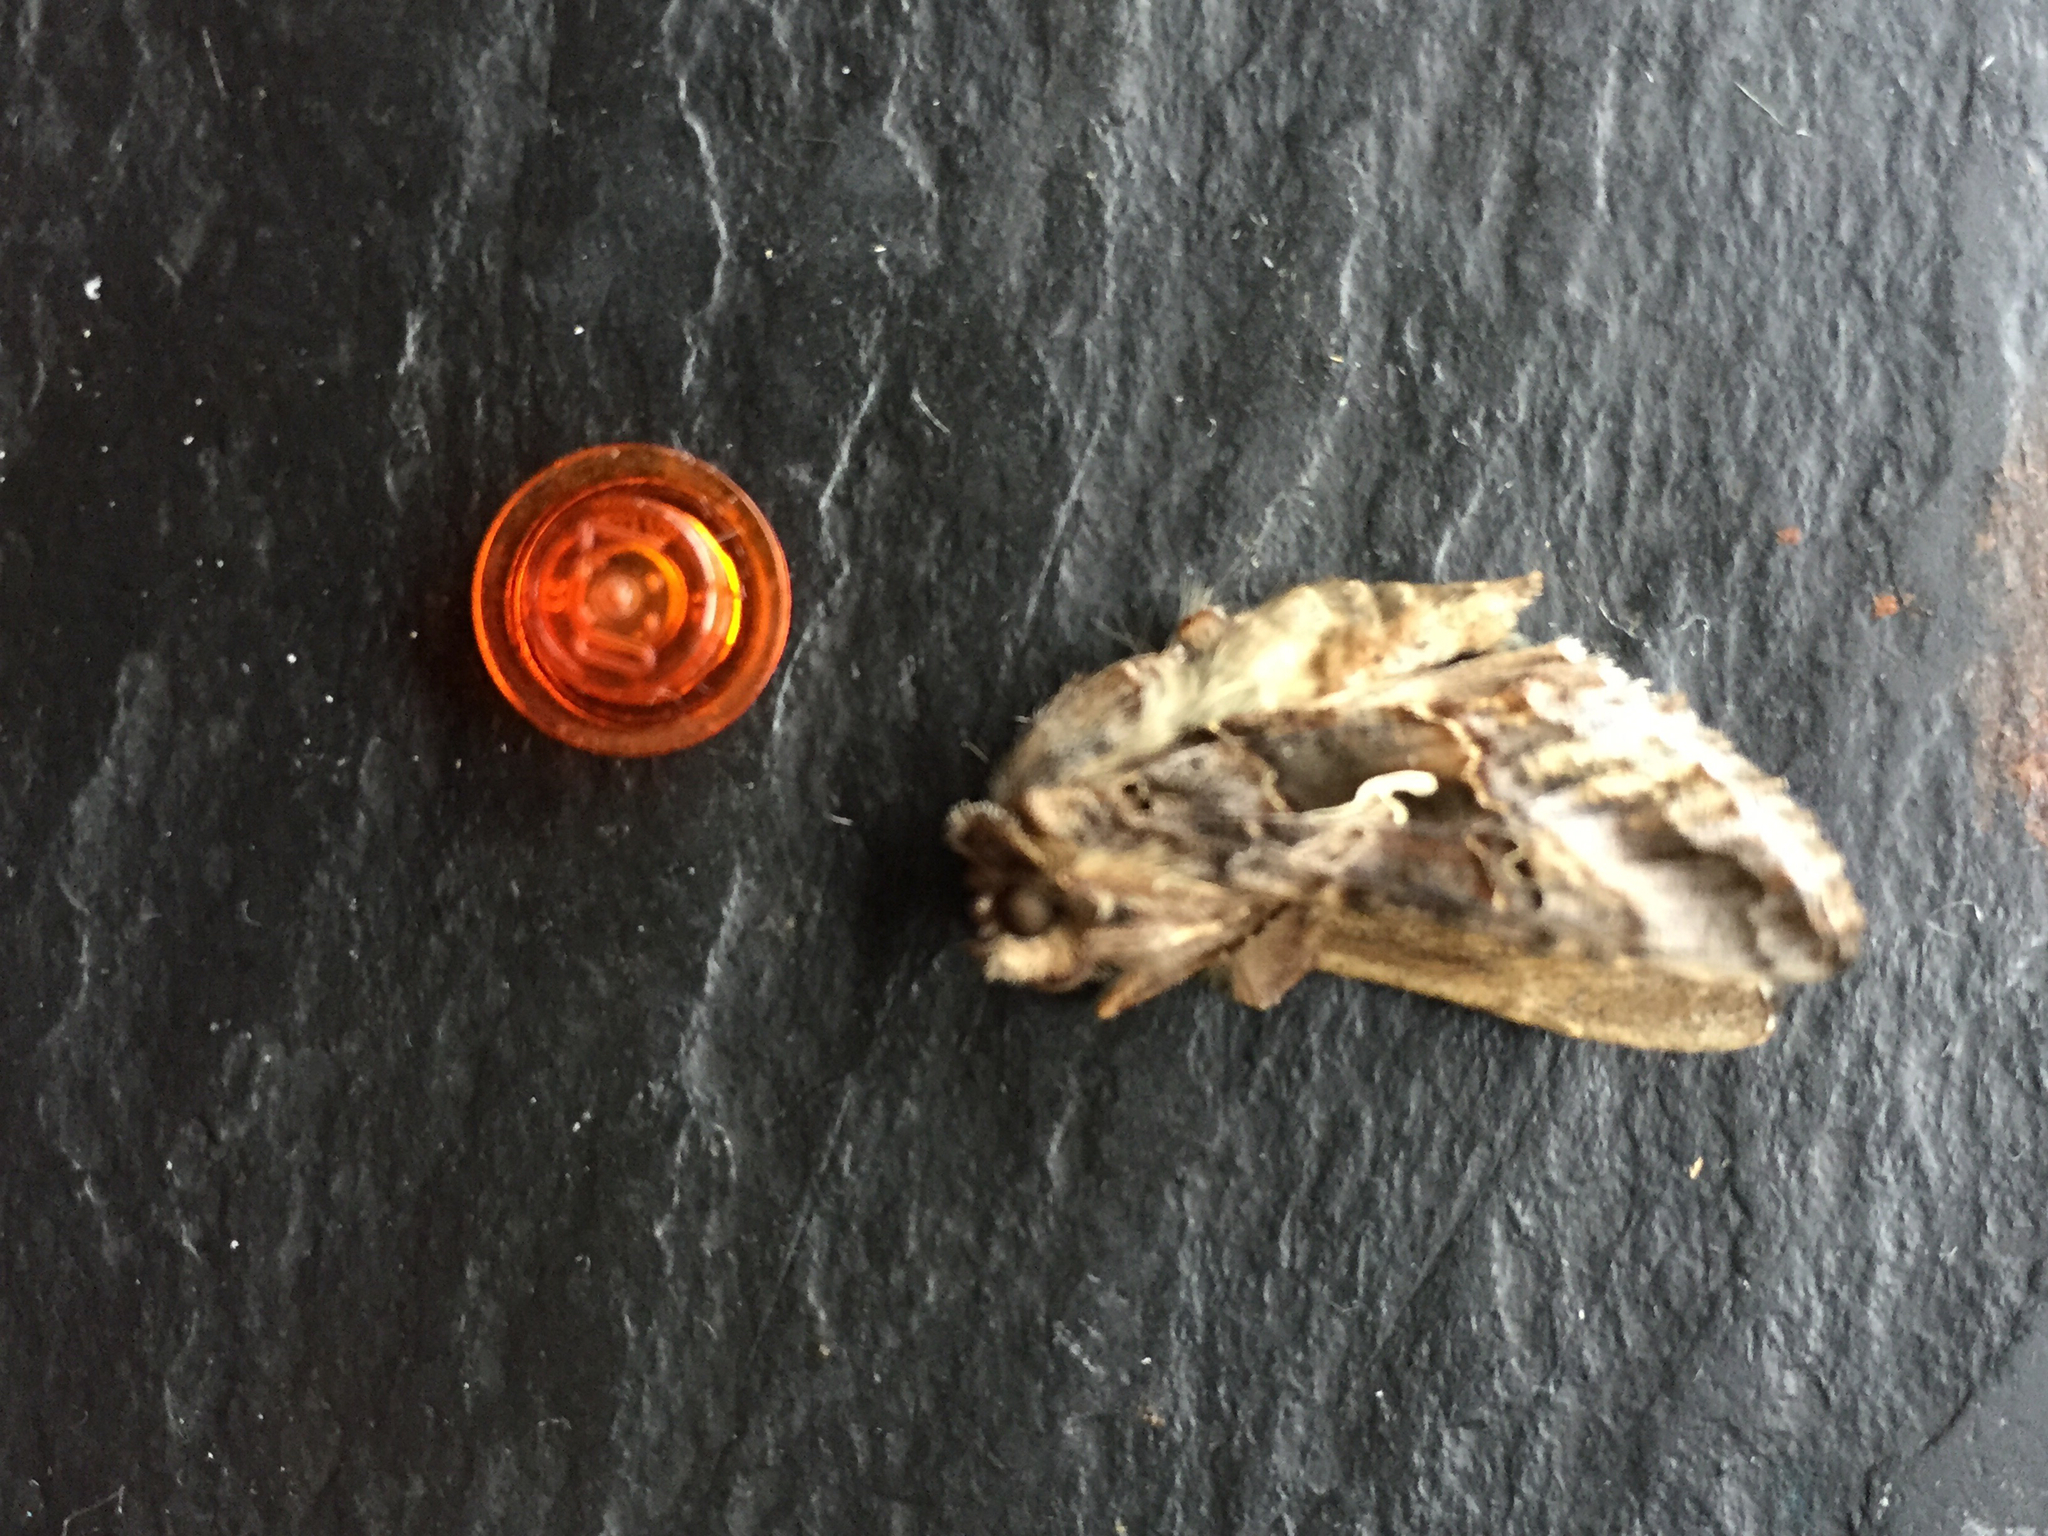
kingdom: Animalia
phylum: Arthropoda
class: Insecta
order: Lepidoptera
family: Noctuidae
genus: Autographa
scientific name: Autographa gamma
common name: Silver y
